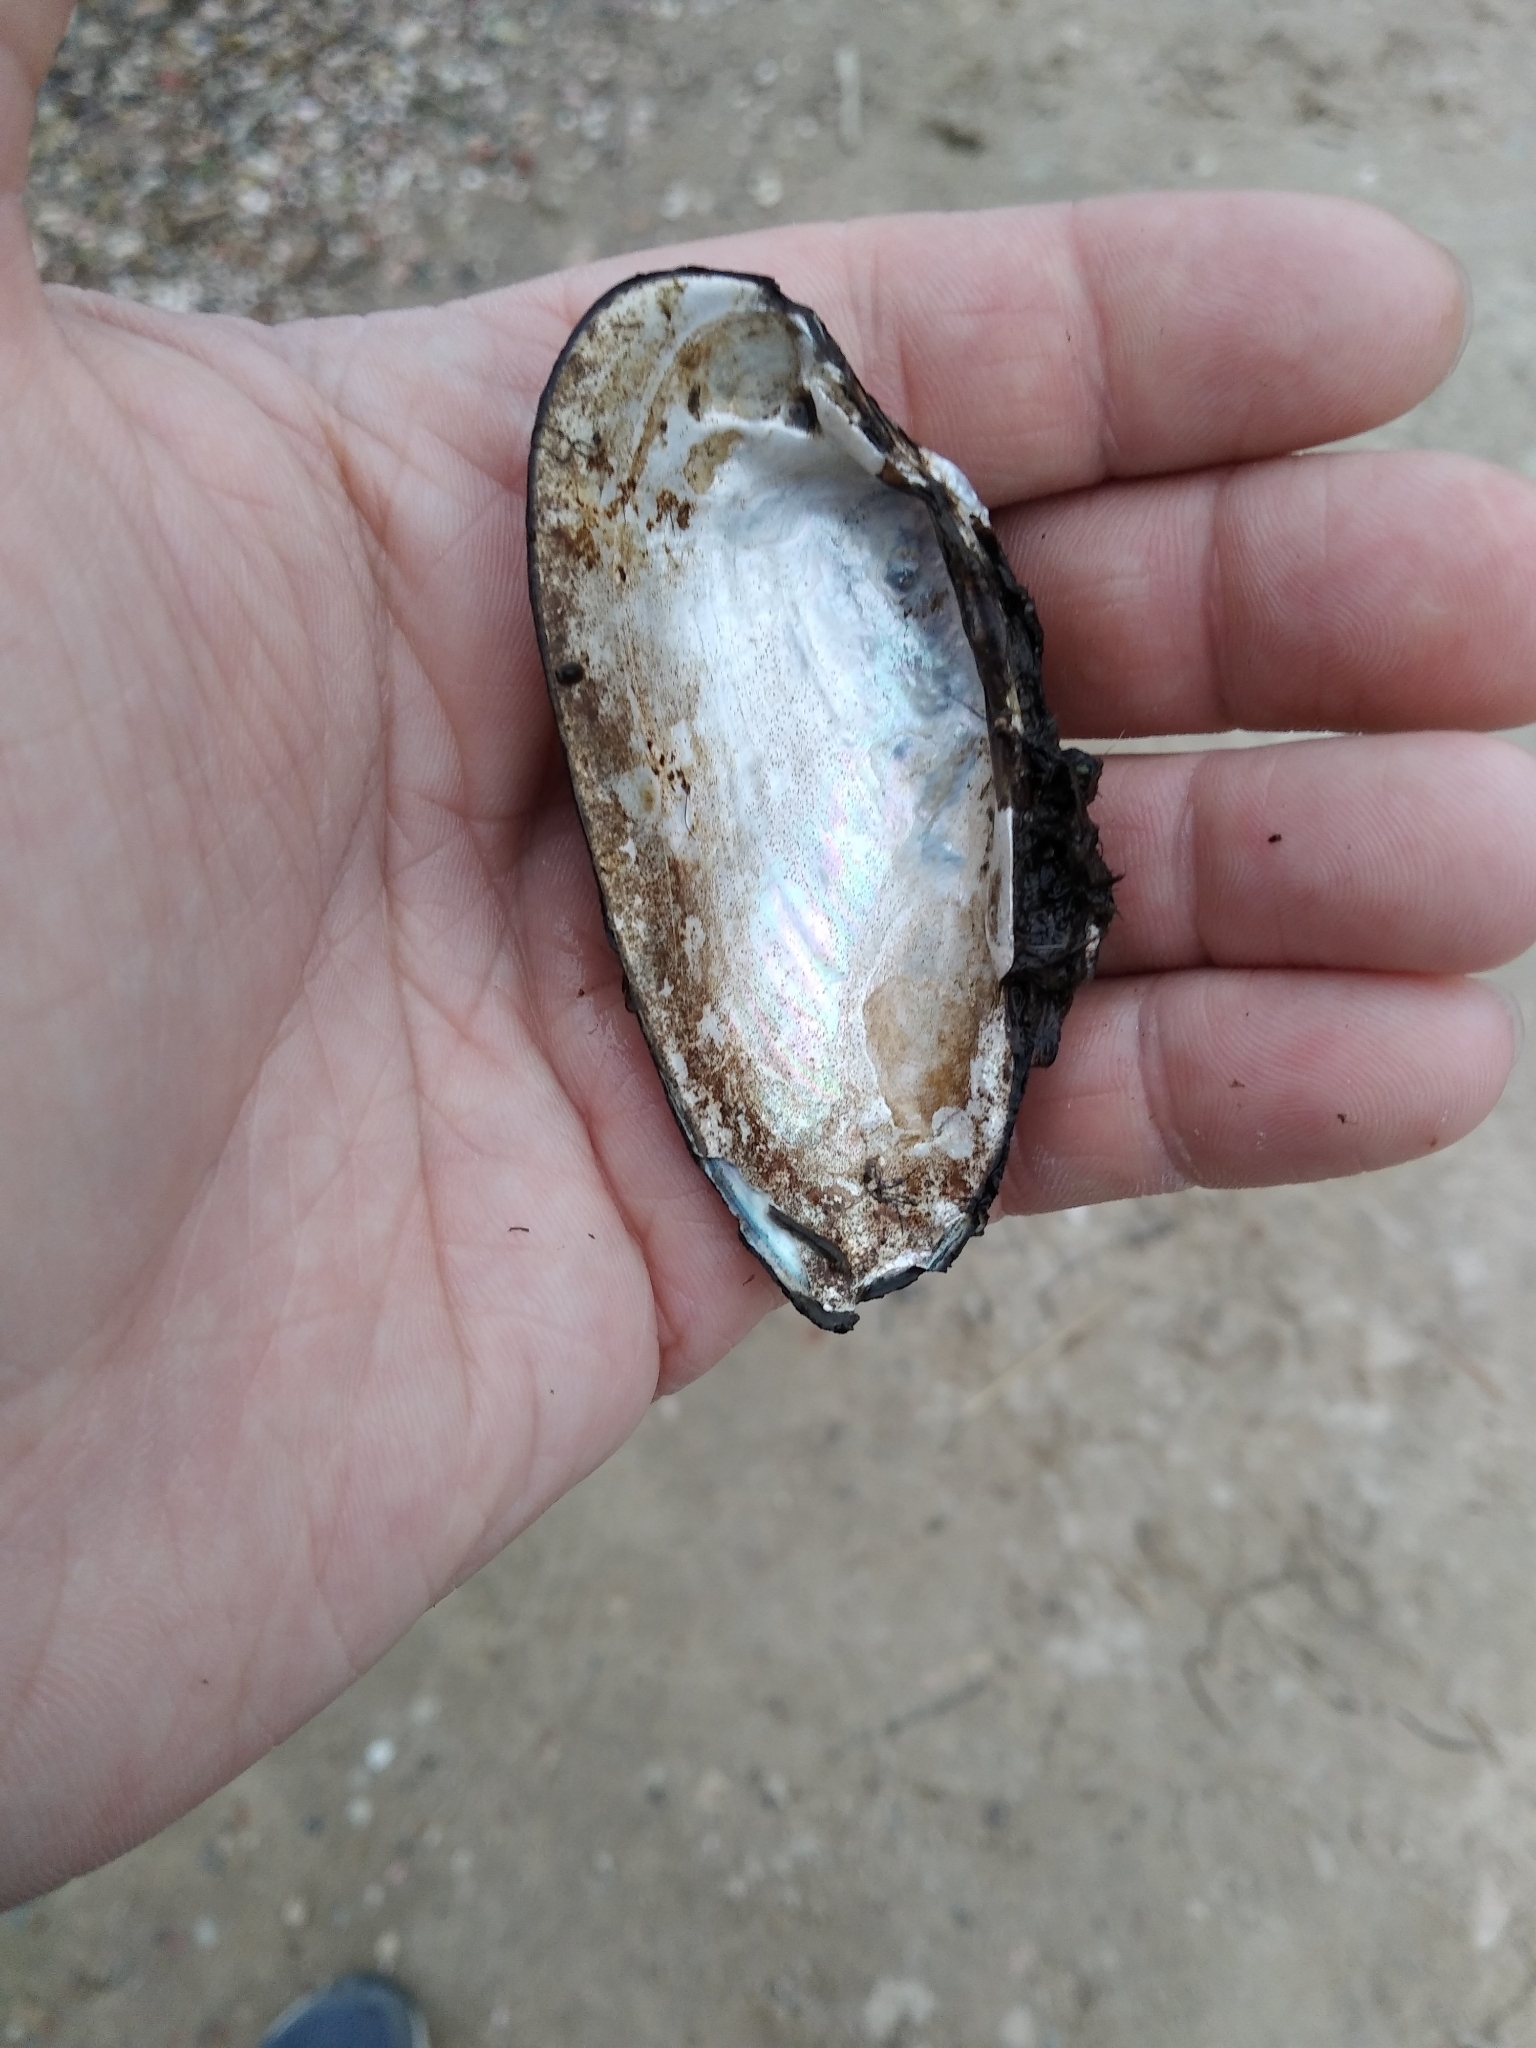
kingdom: Animalia
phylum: Mollusca
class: Bivalvia
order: Unionida
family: Unionidae
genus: Unio
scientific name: Unio pictorum
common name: Painter's mussel
